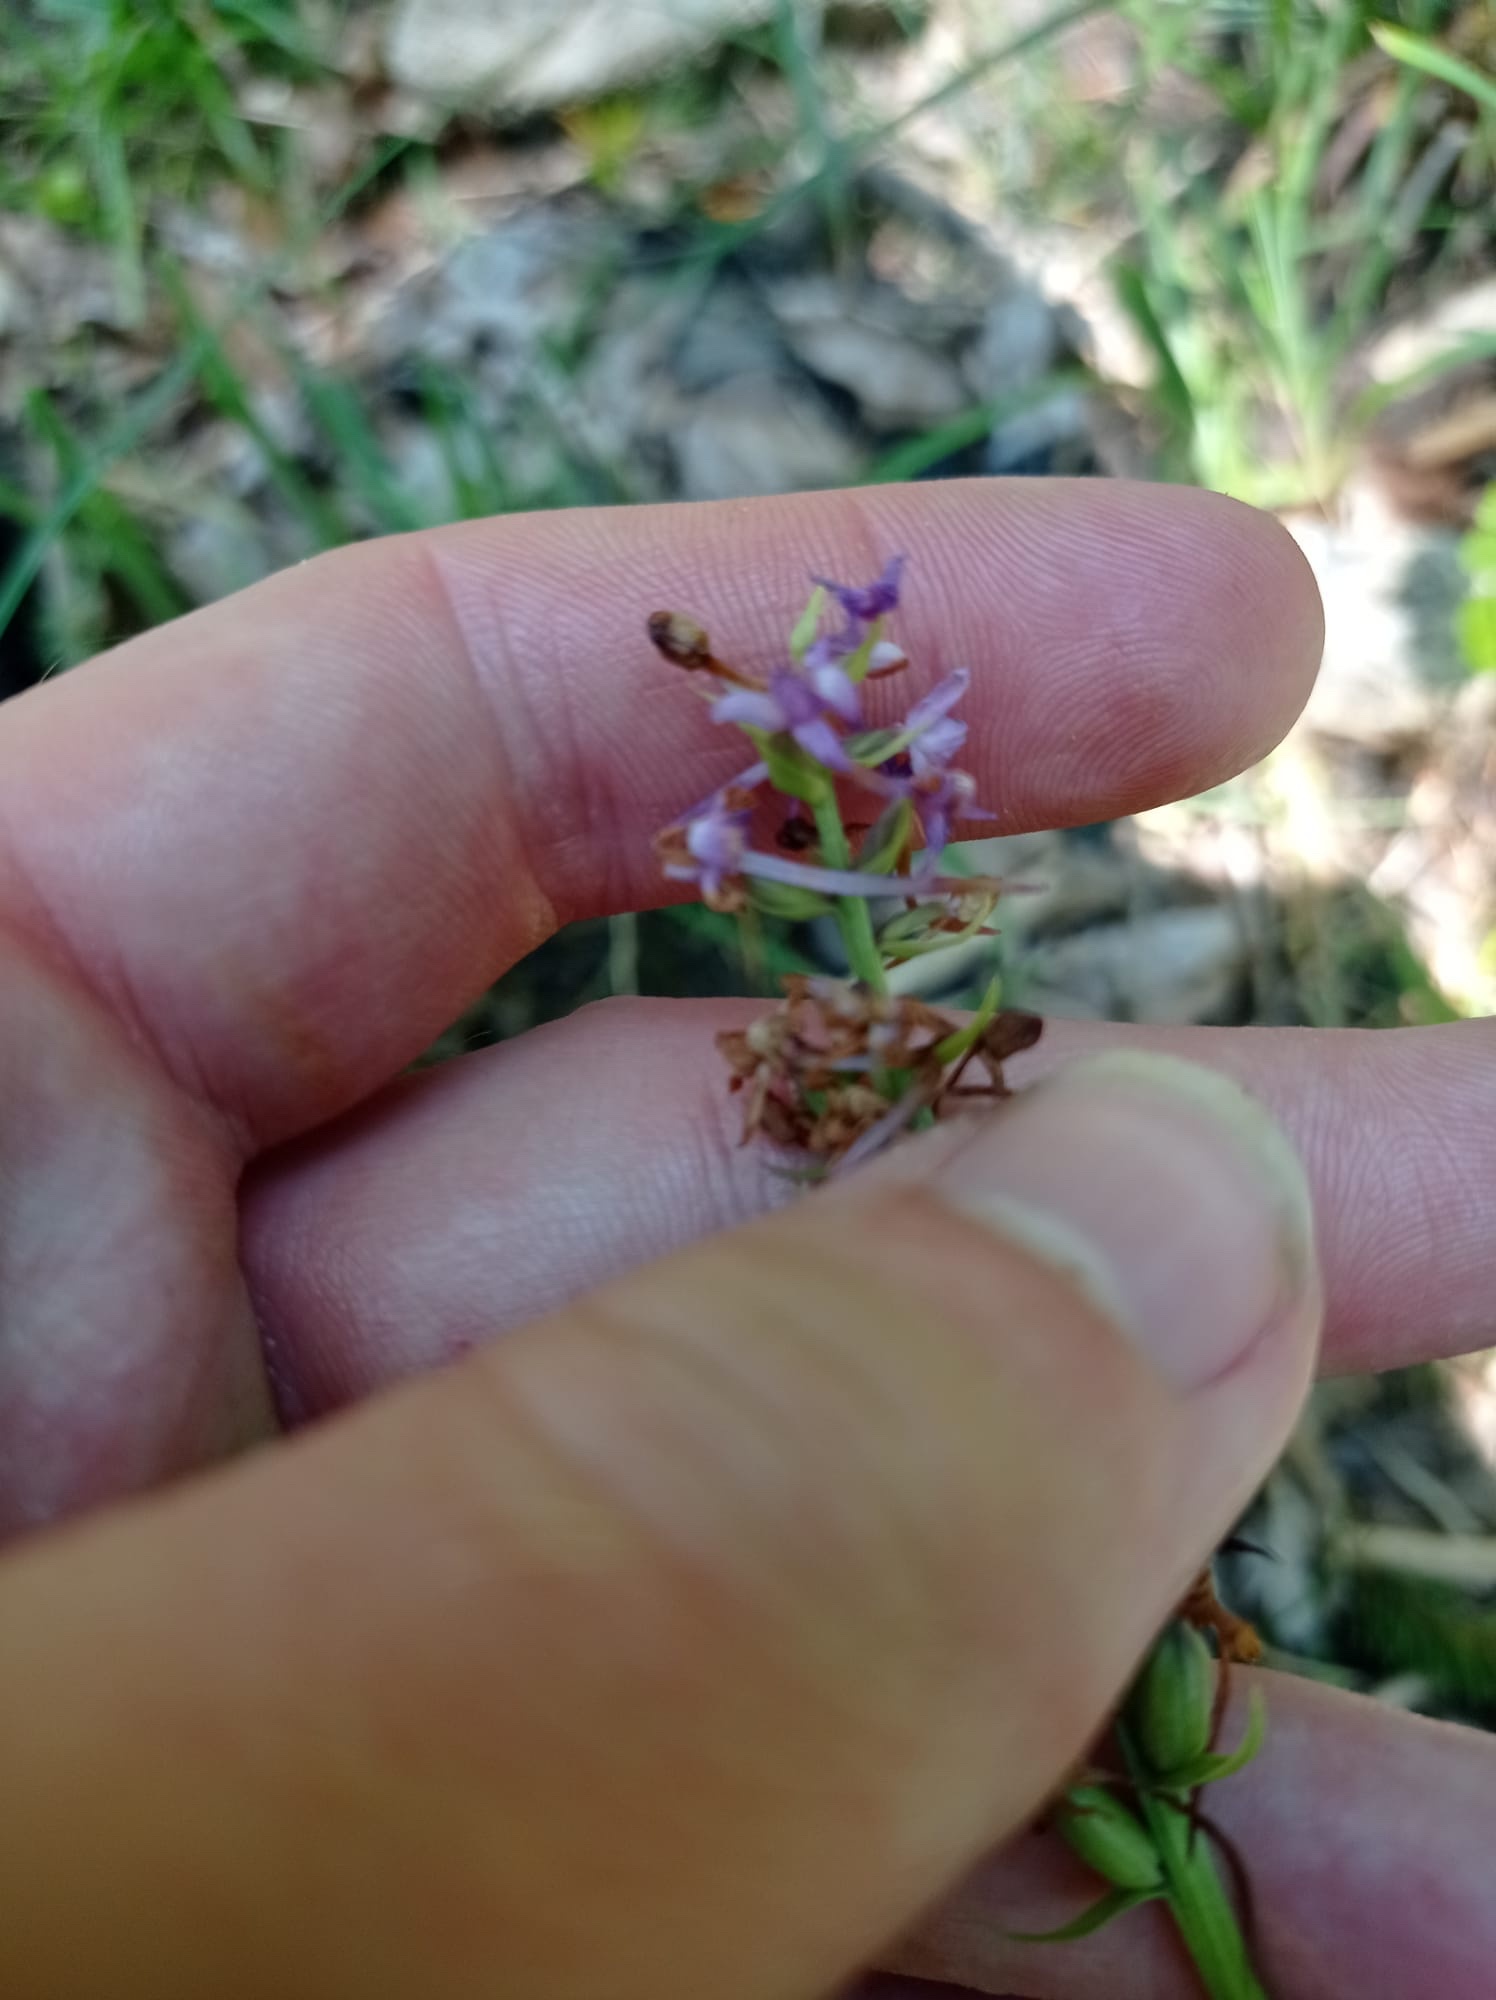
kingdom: Plantae
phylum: Tracheophyta
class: Liliopsida
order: Asparagales
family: Orchidaceae
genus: Gymnadenia
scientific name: Gymnadenia conopsea
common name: Fragrant orchid
